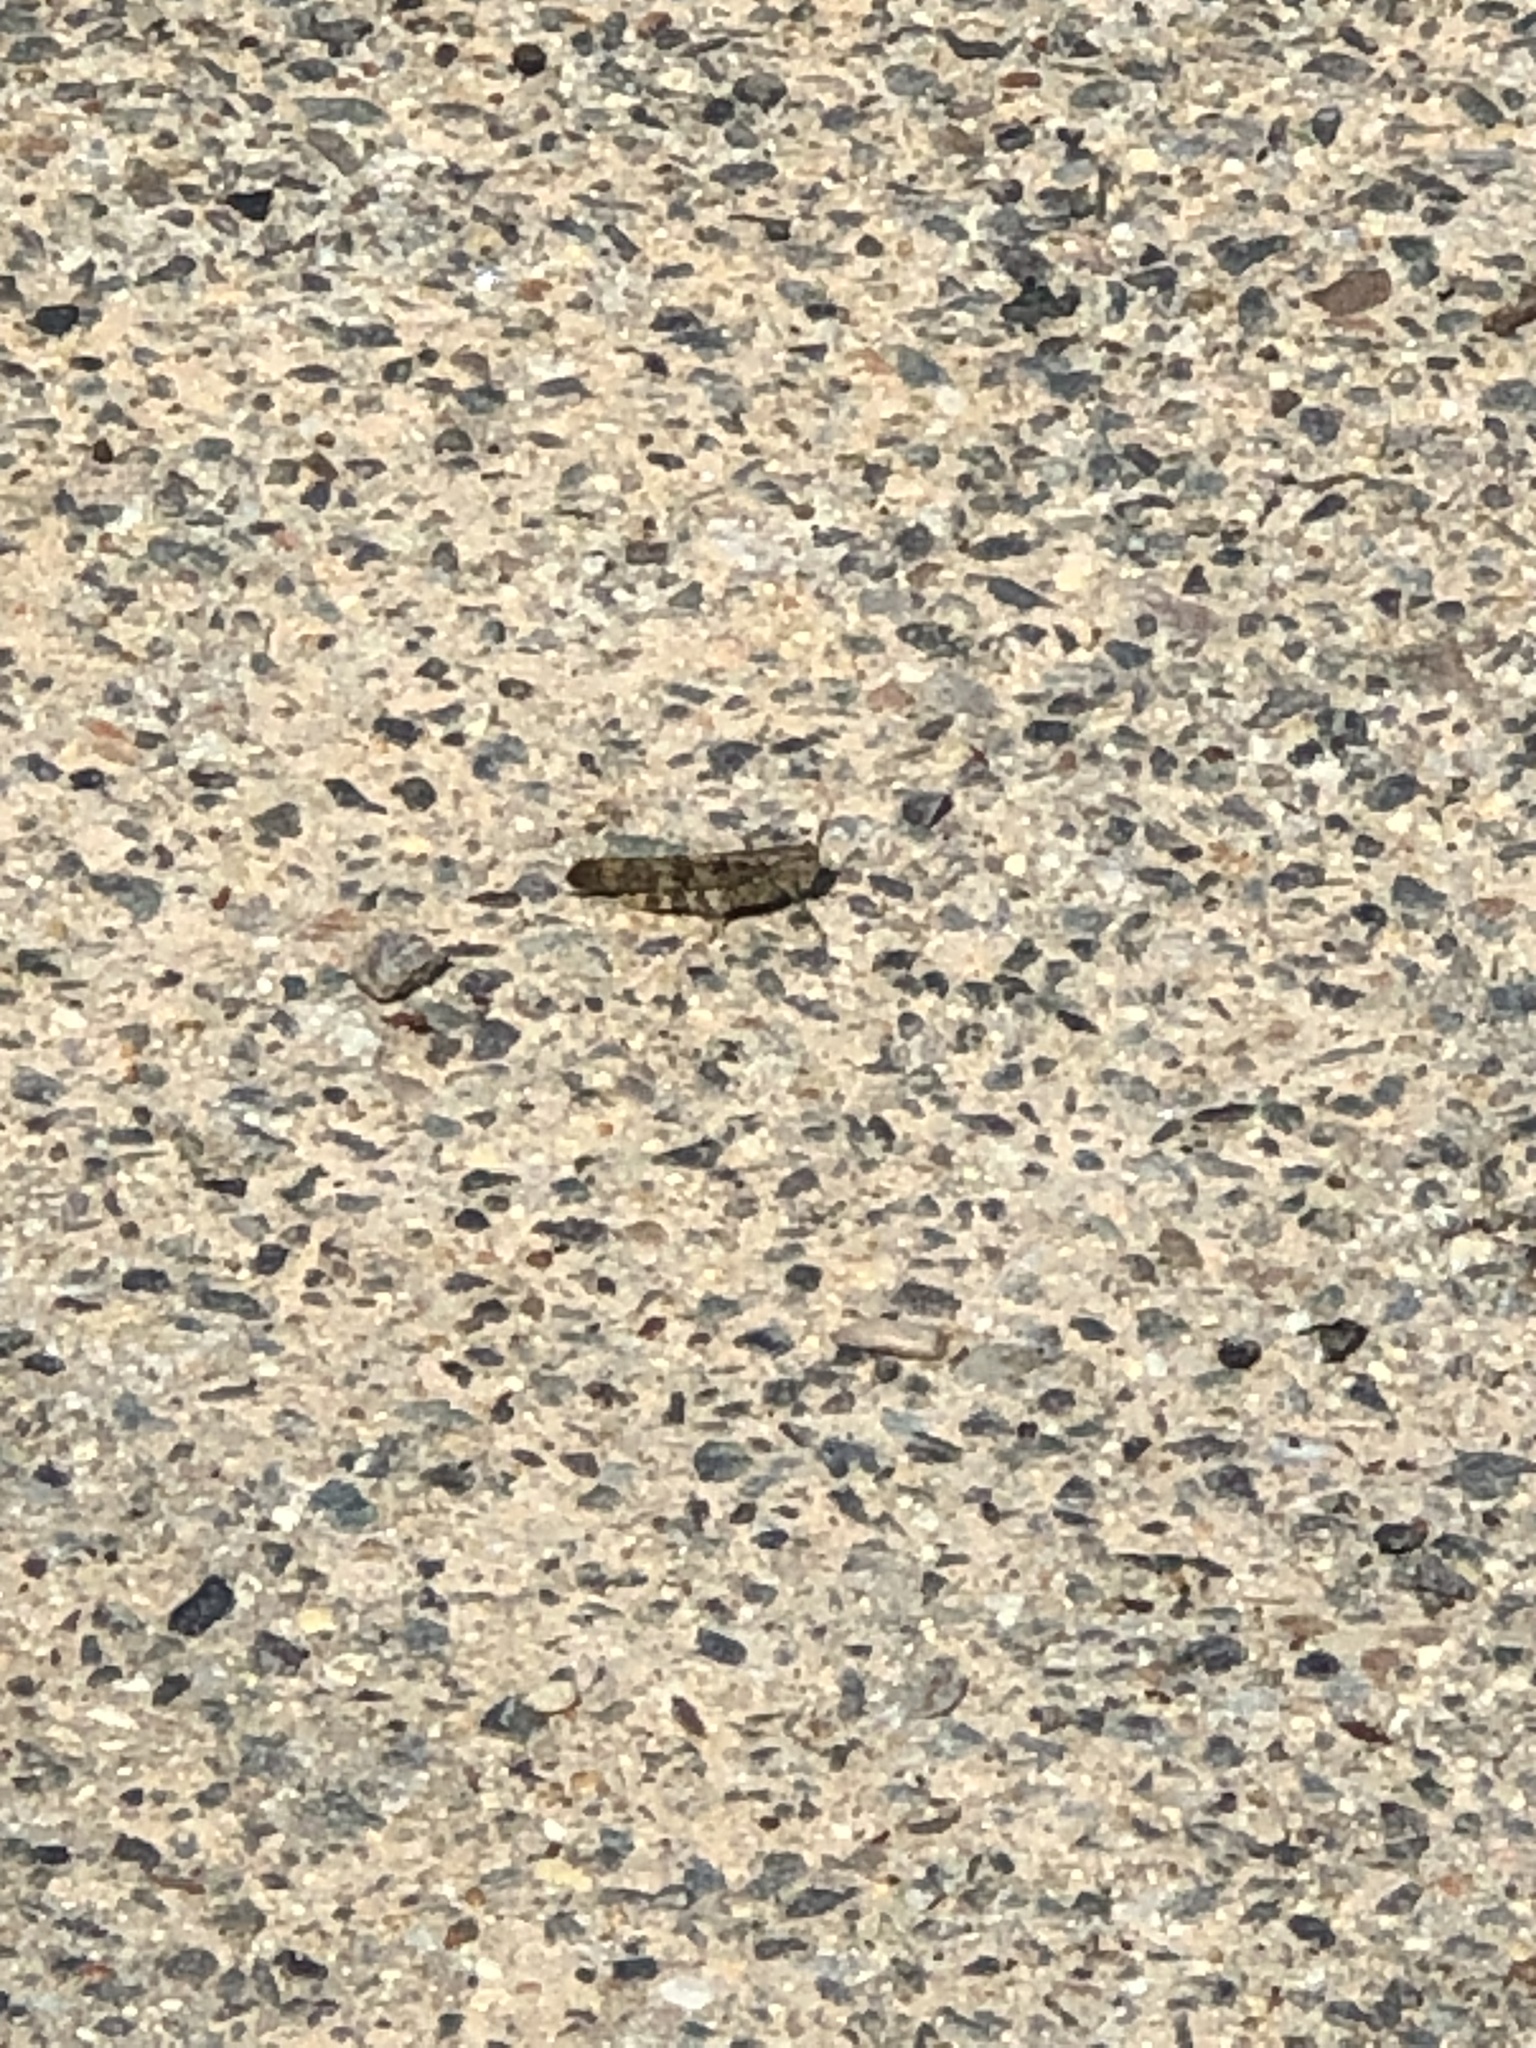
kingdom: Animalia
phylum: Arthropoda
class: Insecta
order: Orthoptera
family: Acrididae
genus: Dissosteira
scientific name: Dissosteira carolina
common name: Carolina grasshopper
